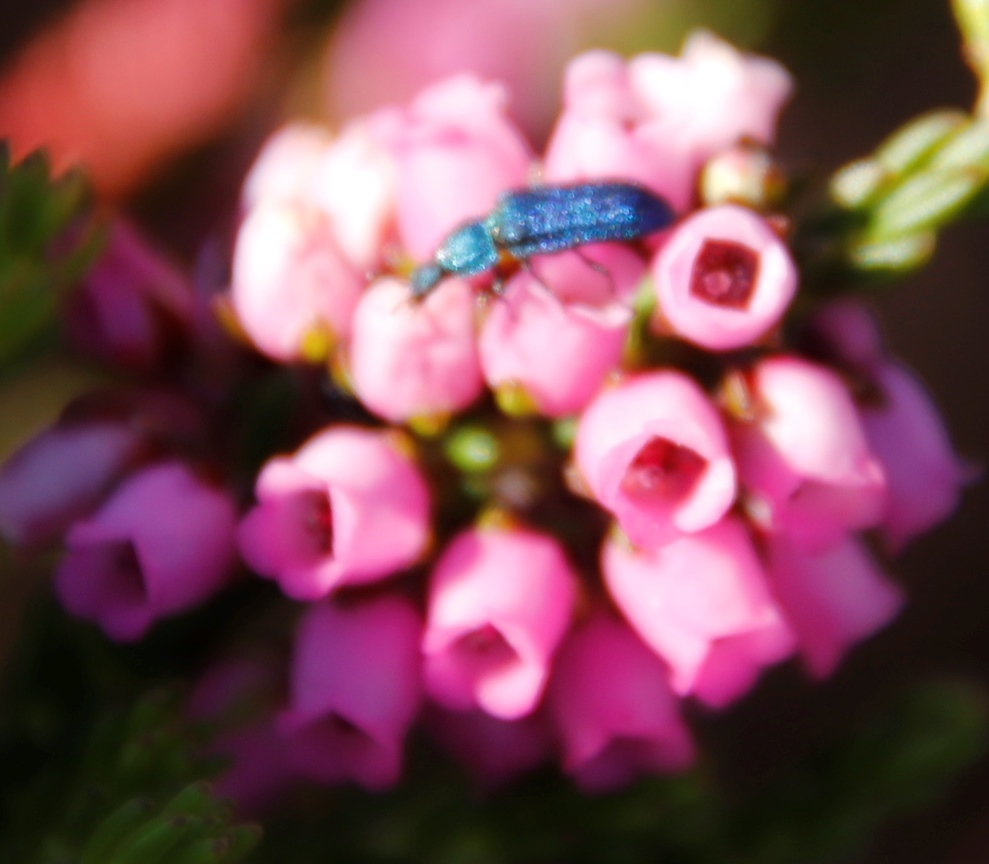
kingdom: Plantae
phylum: Tracheophyta
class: Magnoliopsida
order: Ericales
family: Ericaceae
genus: Erica
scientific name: Erica pulchella
